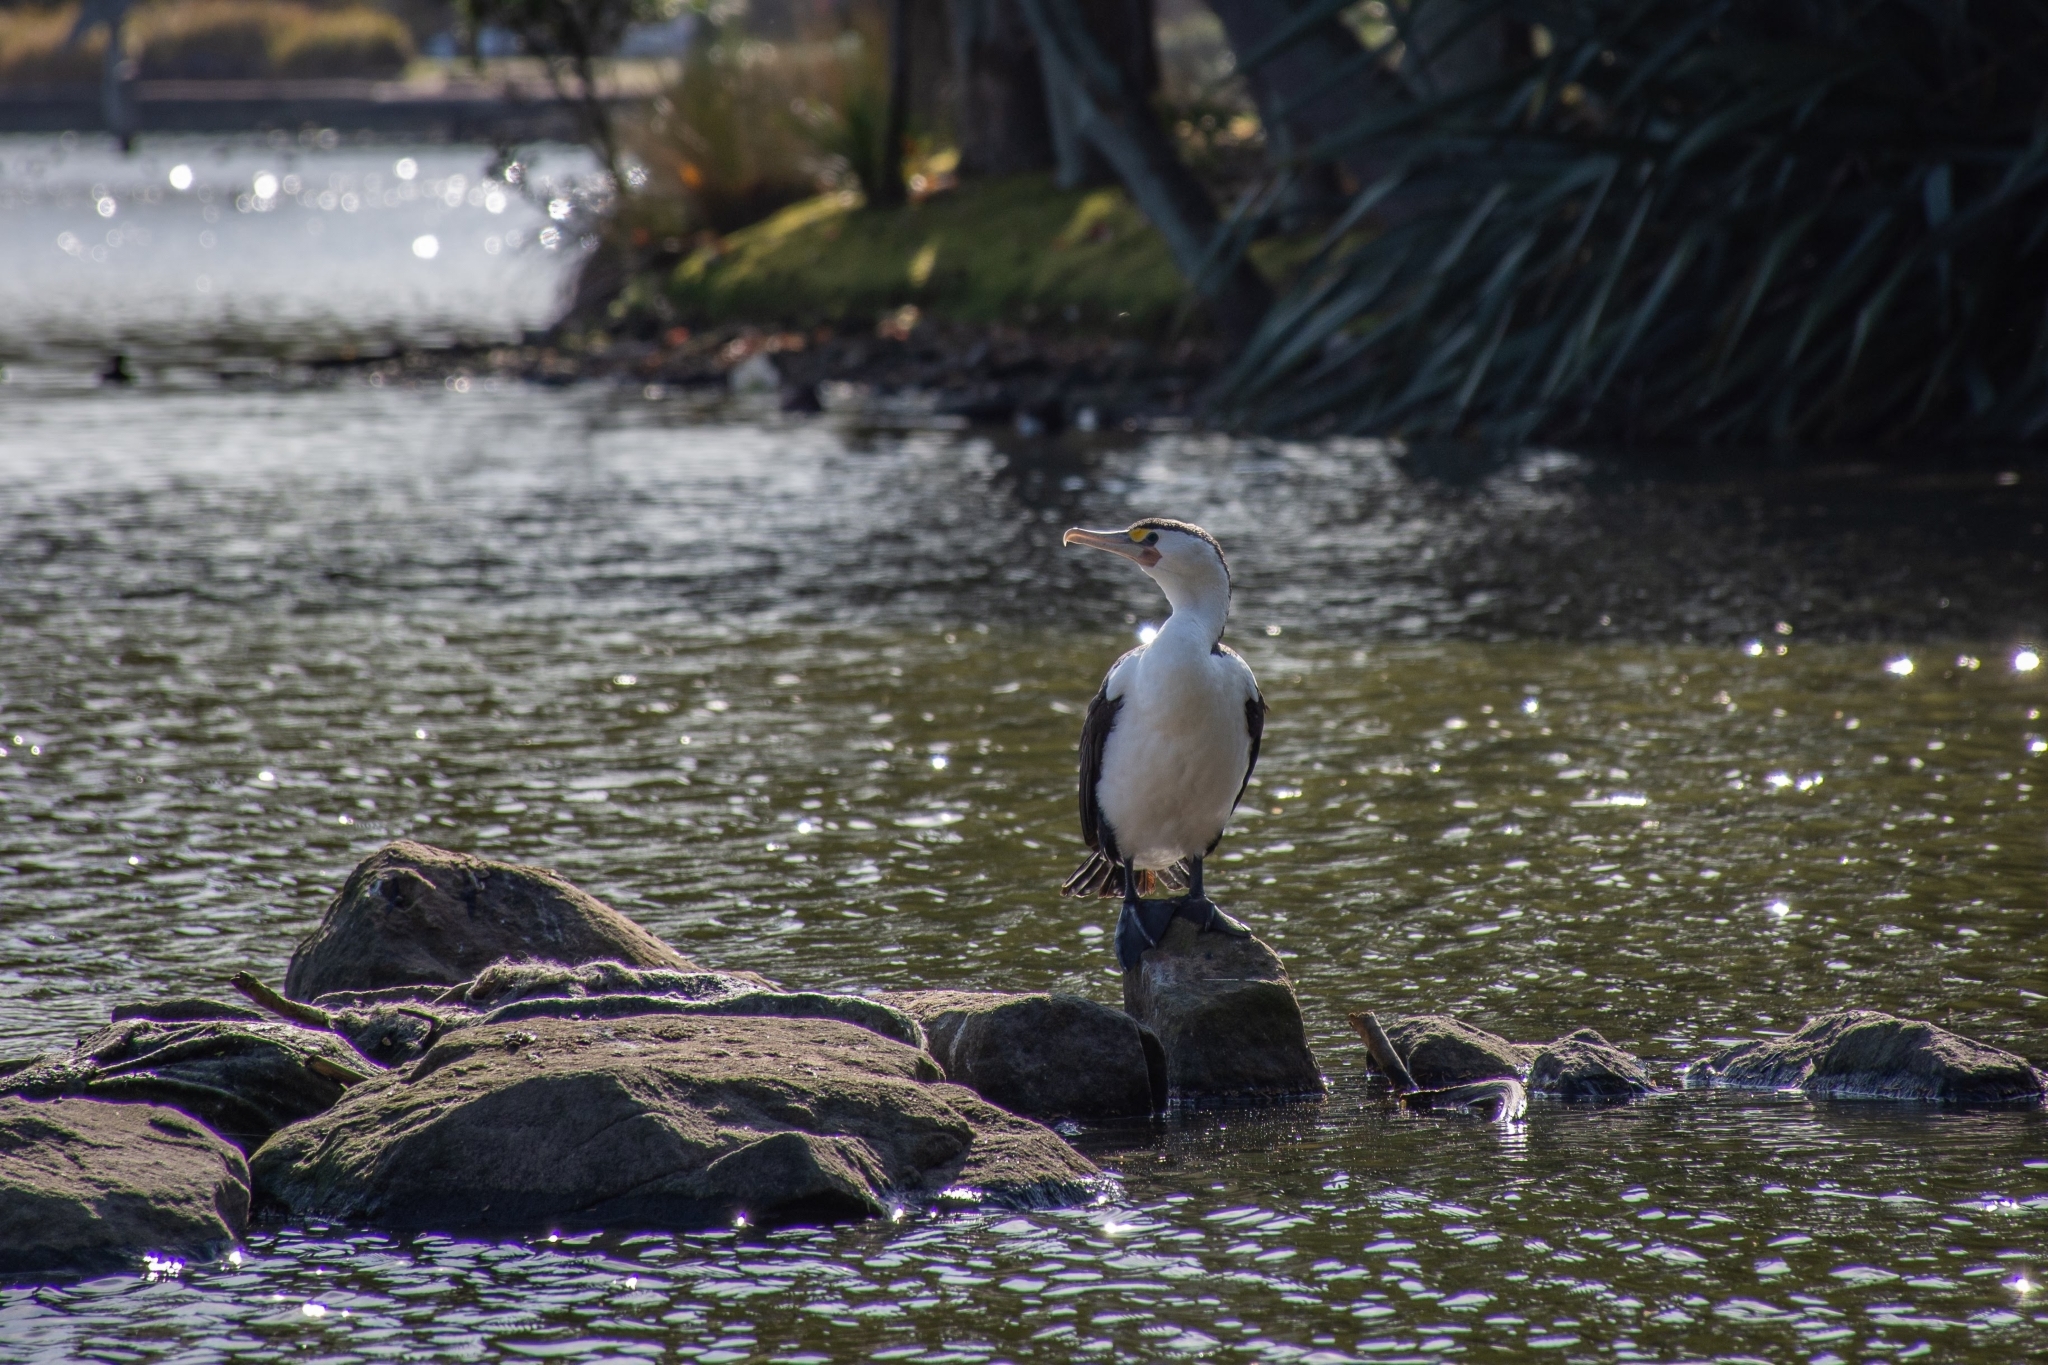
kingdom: Animalia
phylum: Chordata
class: Aves
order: Suliformes
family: Phalacrocoracidae
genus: Phalacrocorax
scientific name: Phalacrocorax varius
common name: Pied cormorant
